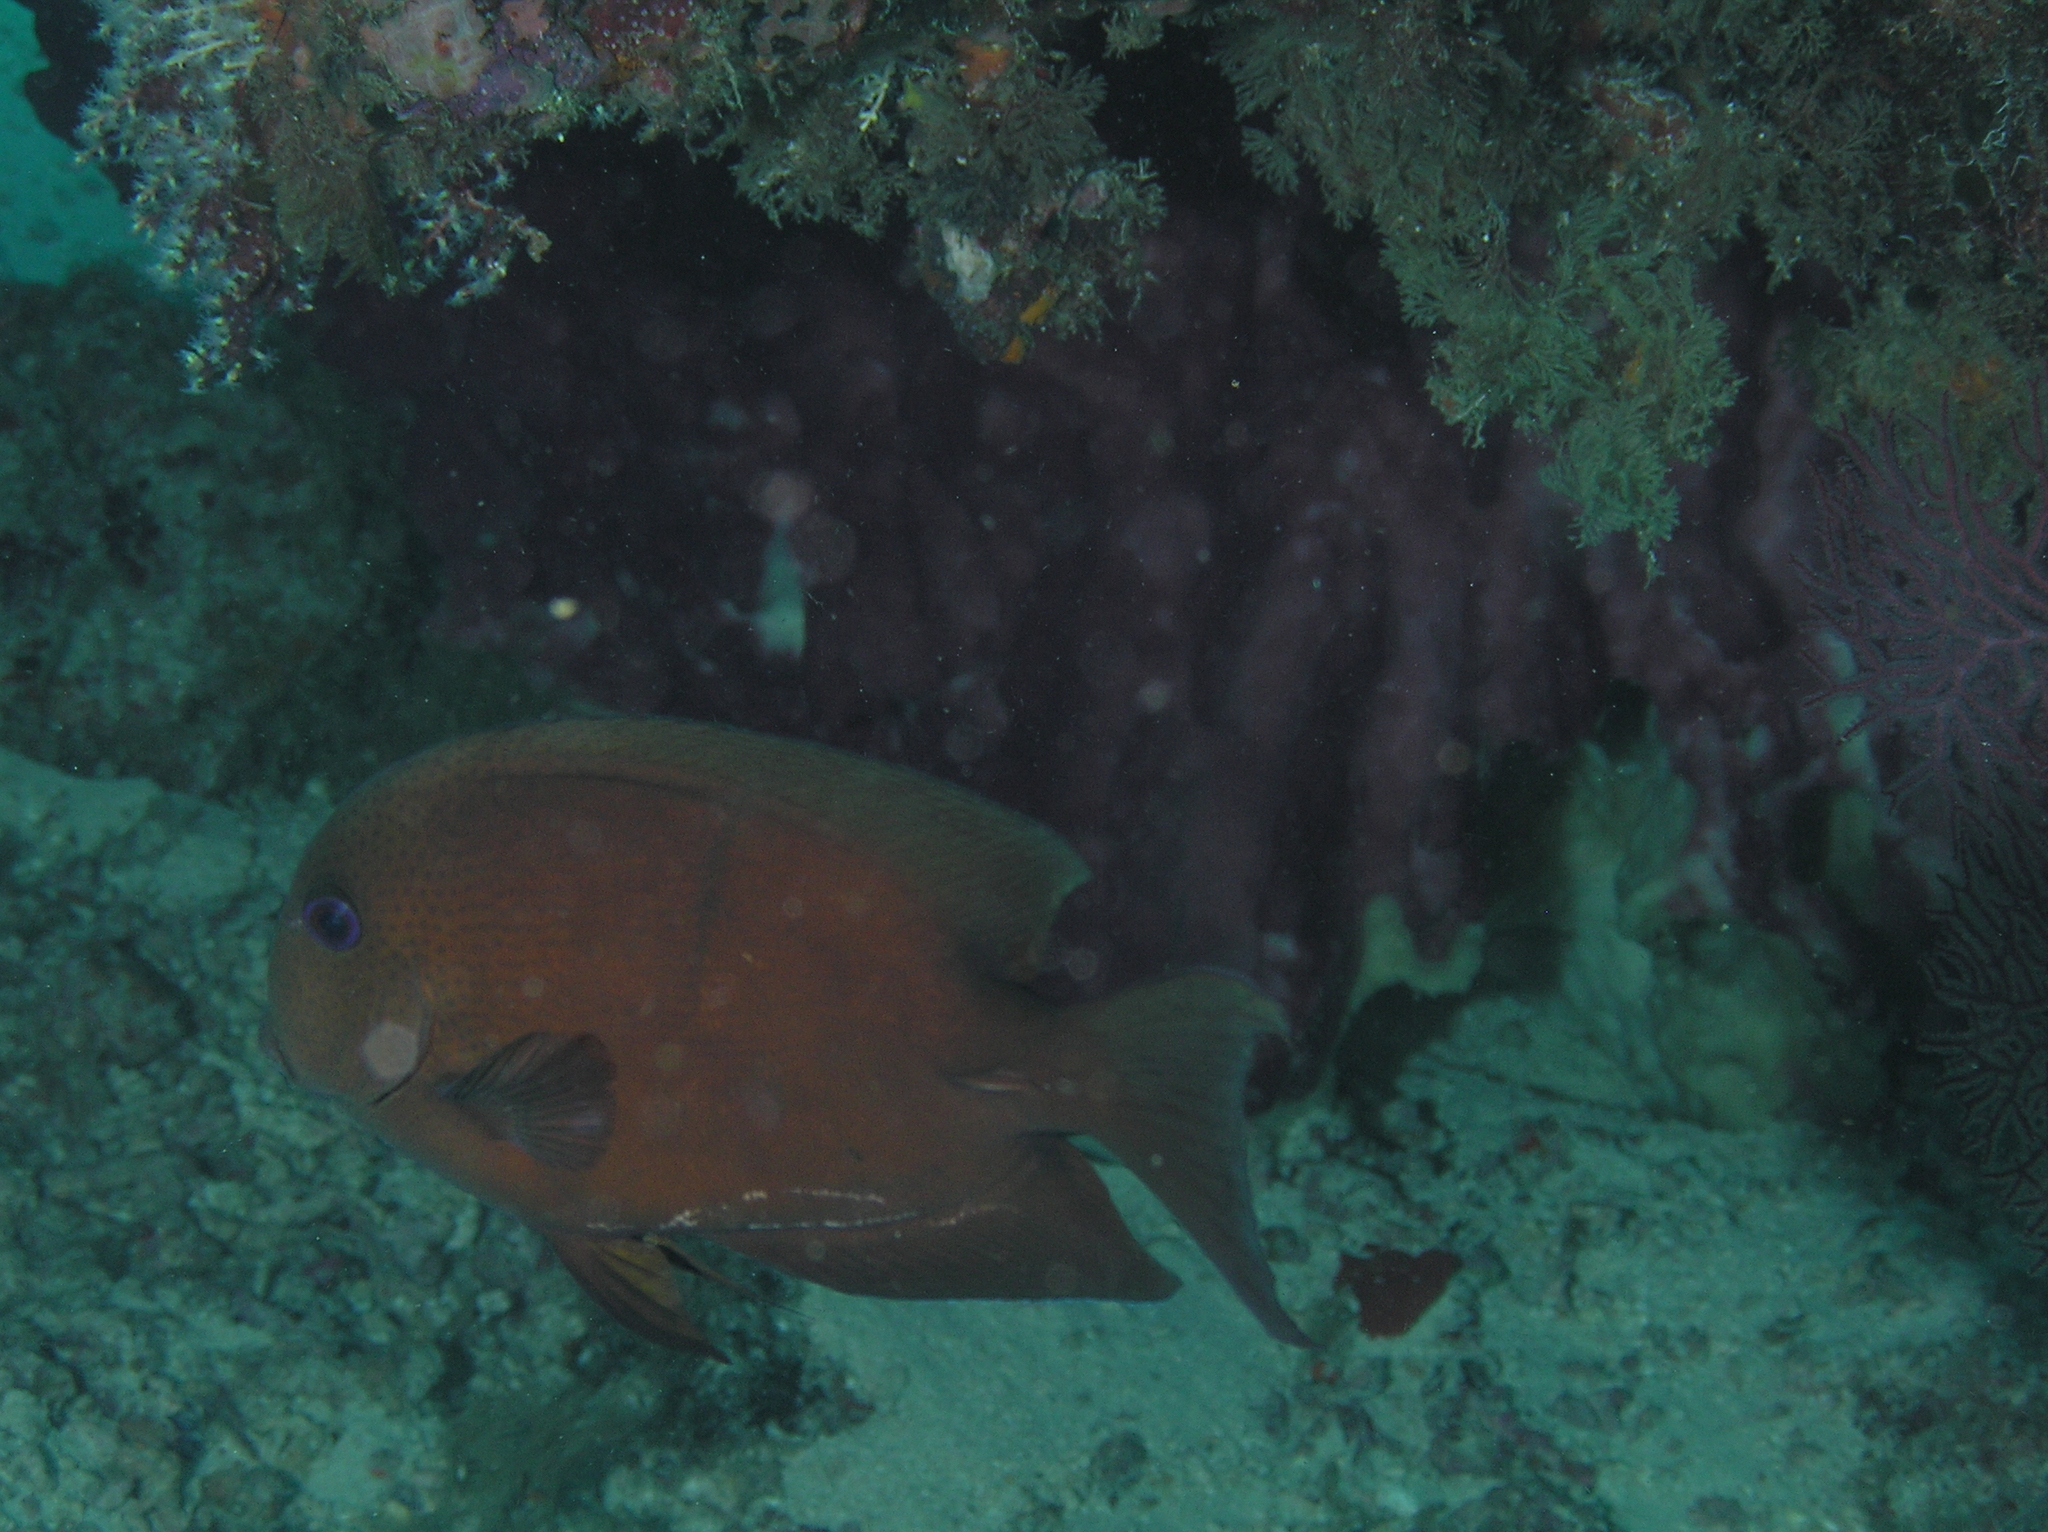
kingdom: Animalia
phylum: Chordata
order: Perciformes
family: Acanthuridae
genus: Ctenochaetus
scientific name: Ctenochaetus binotatus
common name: Two-spot bristletooth
